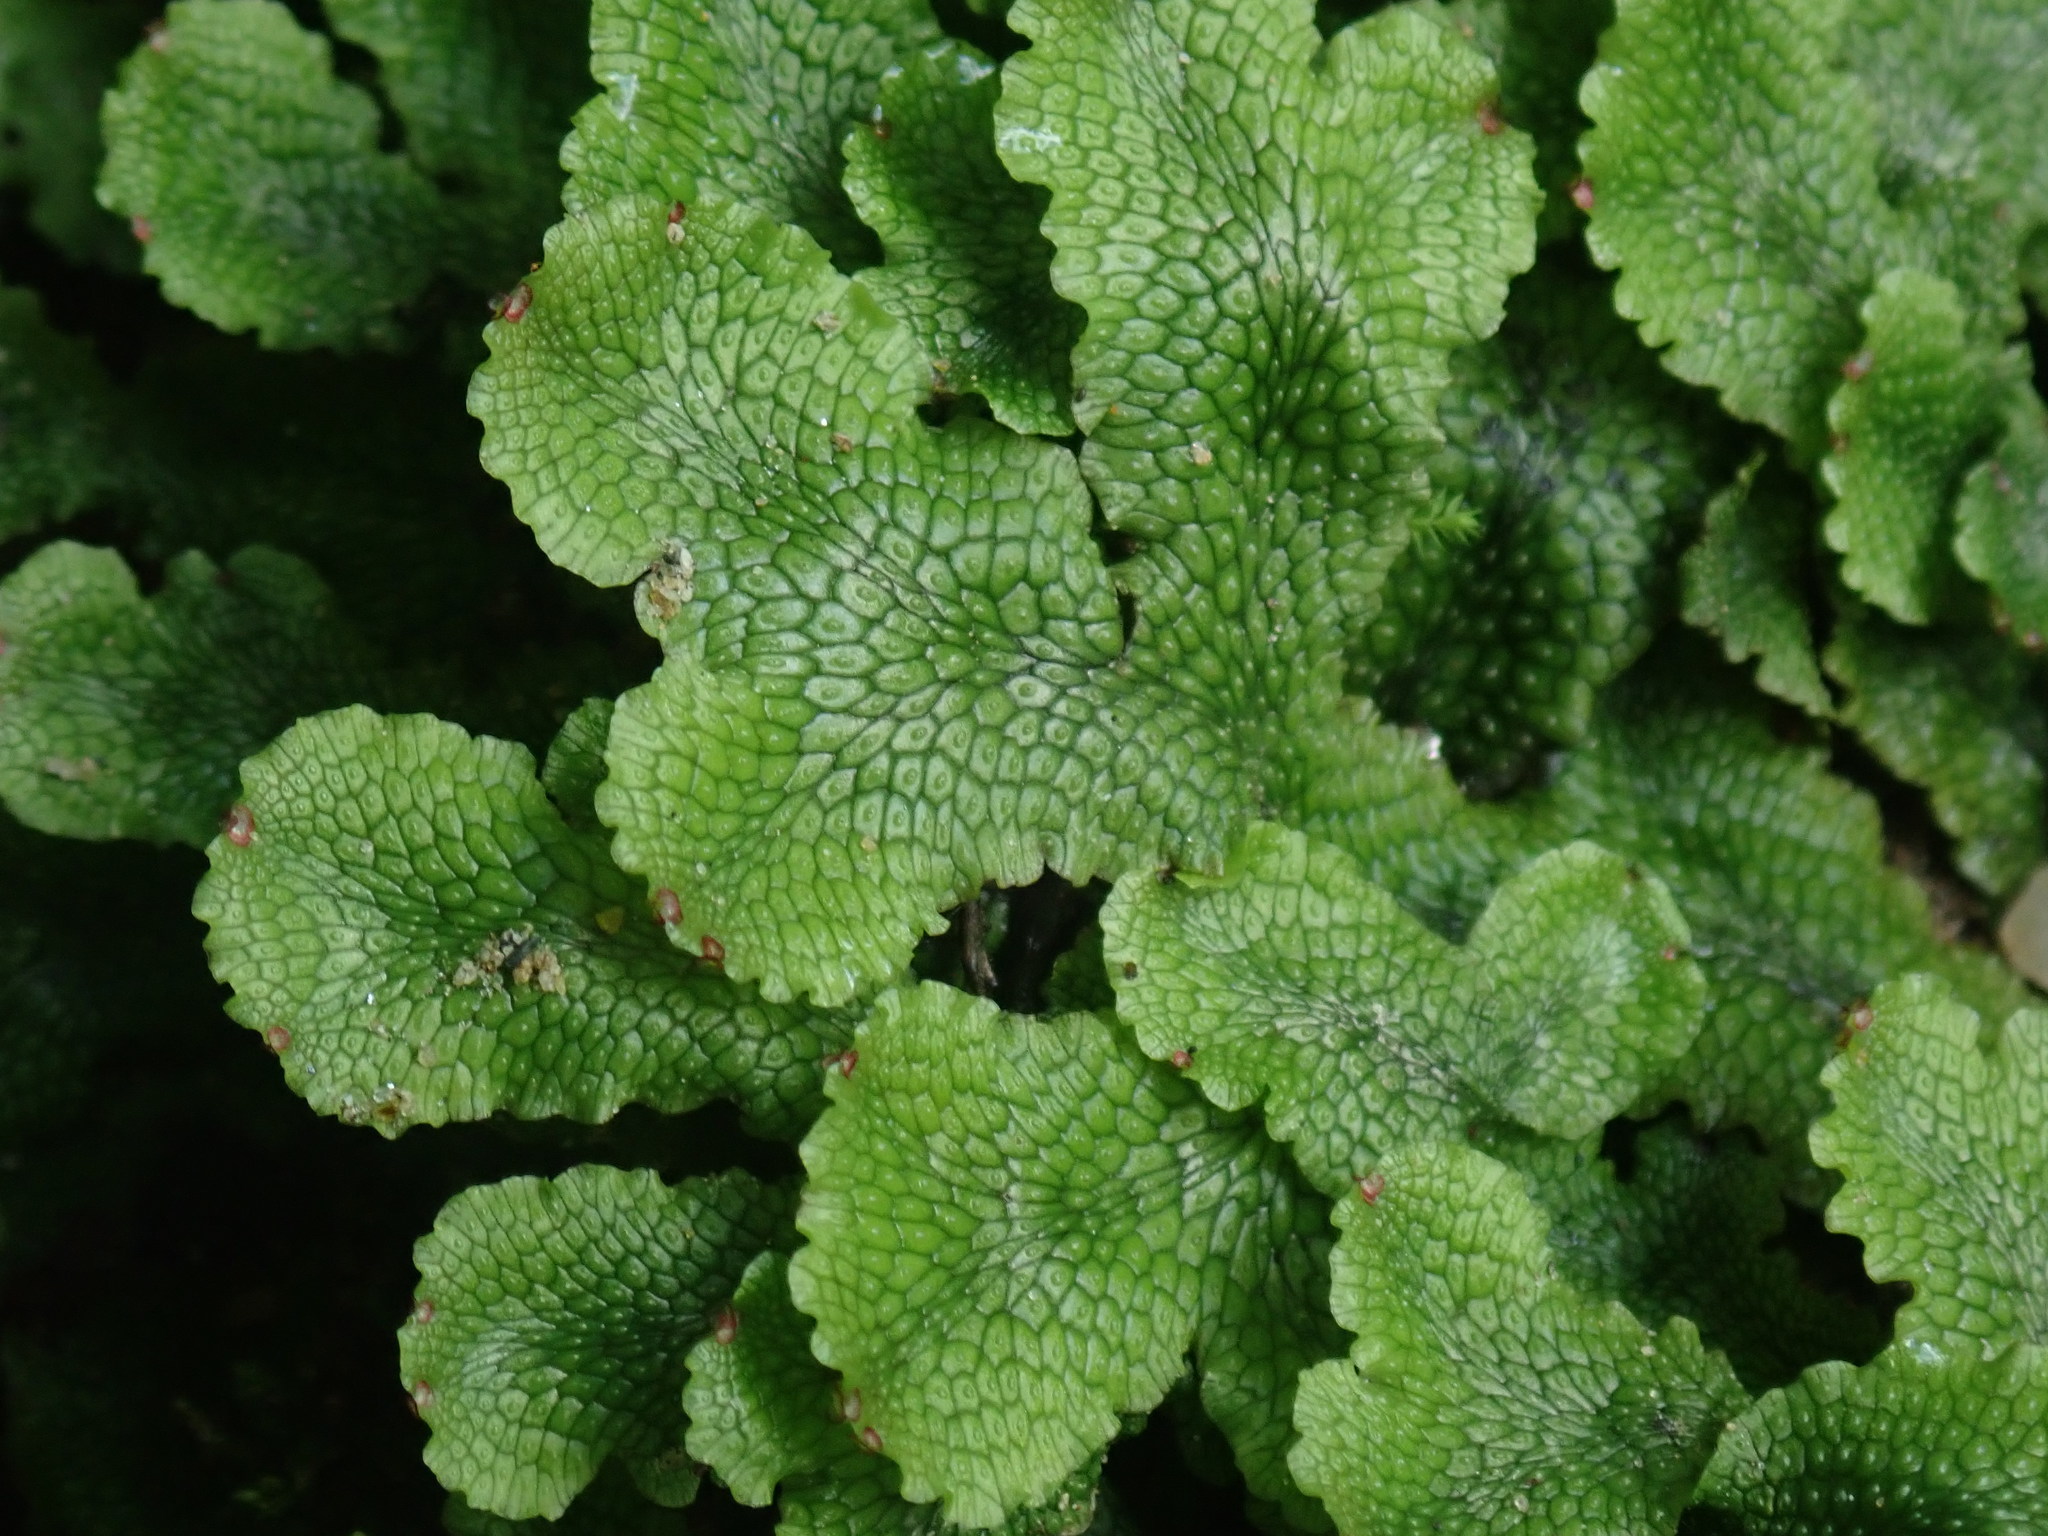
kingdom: Plantae
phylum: Marchantiophyta
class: Marchantiopsida
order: Marchantiales
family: Conocephalaceae
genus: Conocephalum
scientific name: Conocephalum salebrosum
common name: Cat-tongue liverwort
